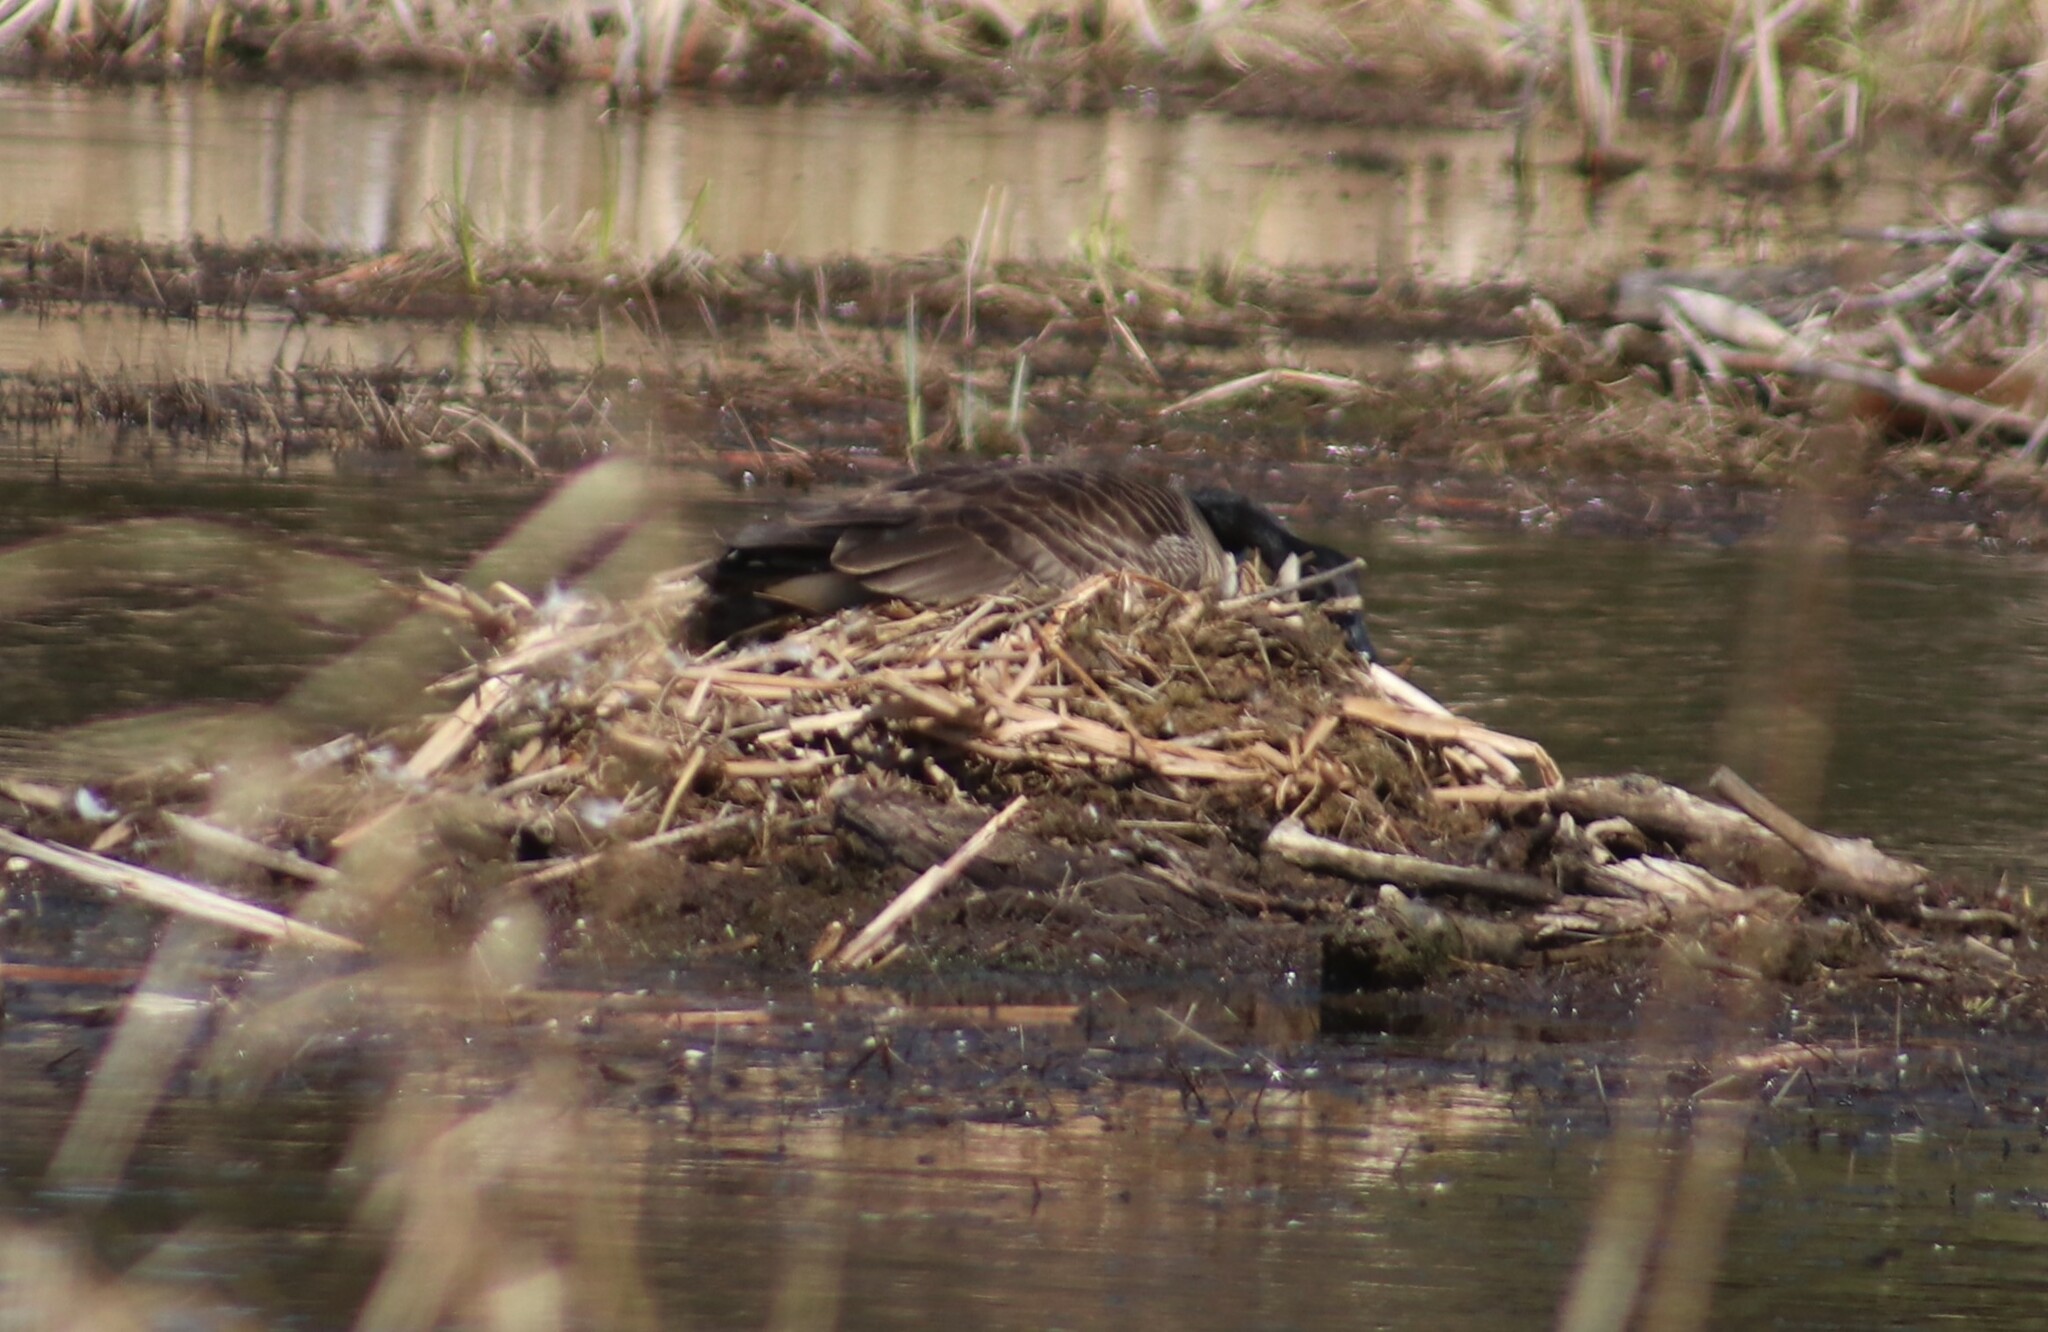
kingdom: Animalia
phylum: Chordata
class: Aves
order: Anseriformes
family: Anatidae
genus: Branta
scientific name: Branta canadensis
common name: Canada goose
